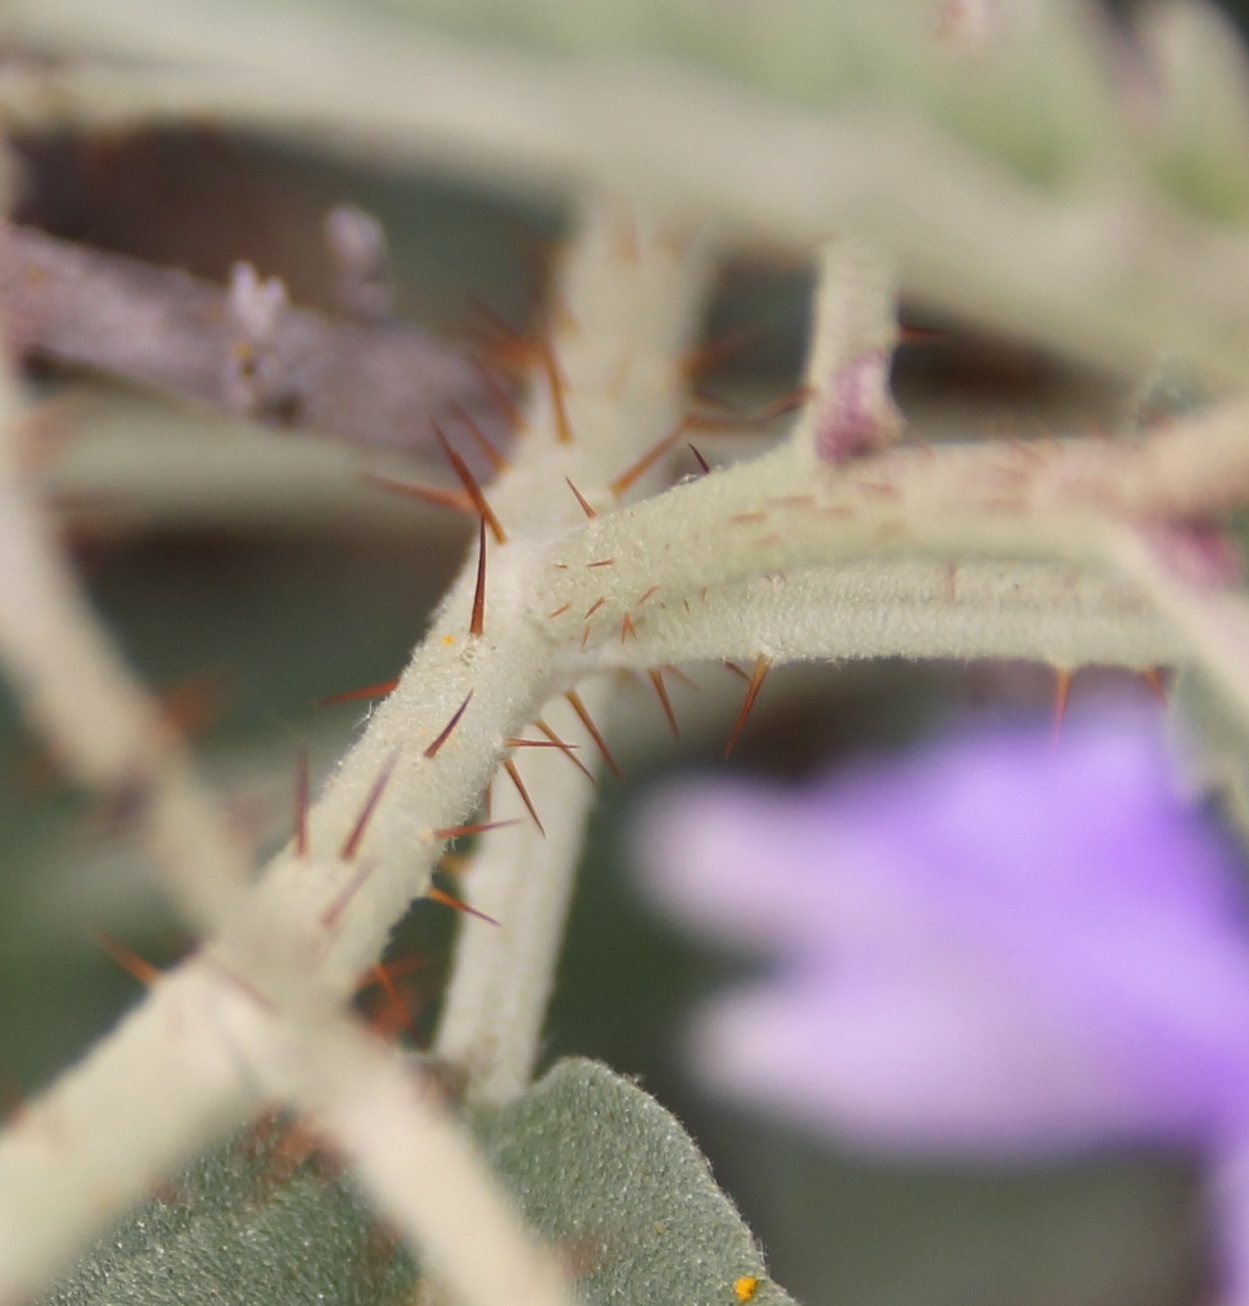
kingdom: Plantae
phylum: Tracheophyta
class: Magnoliopsida
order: Solanales
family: Solanaceae
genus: Solanum
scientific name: Solanum elaeagnifolium
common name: Silverleaf nightshade
